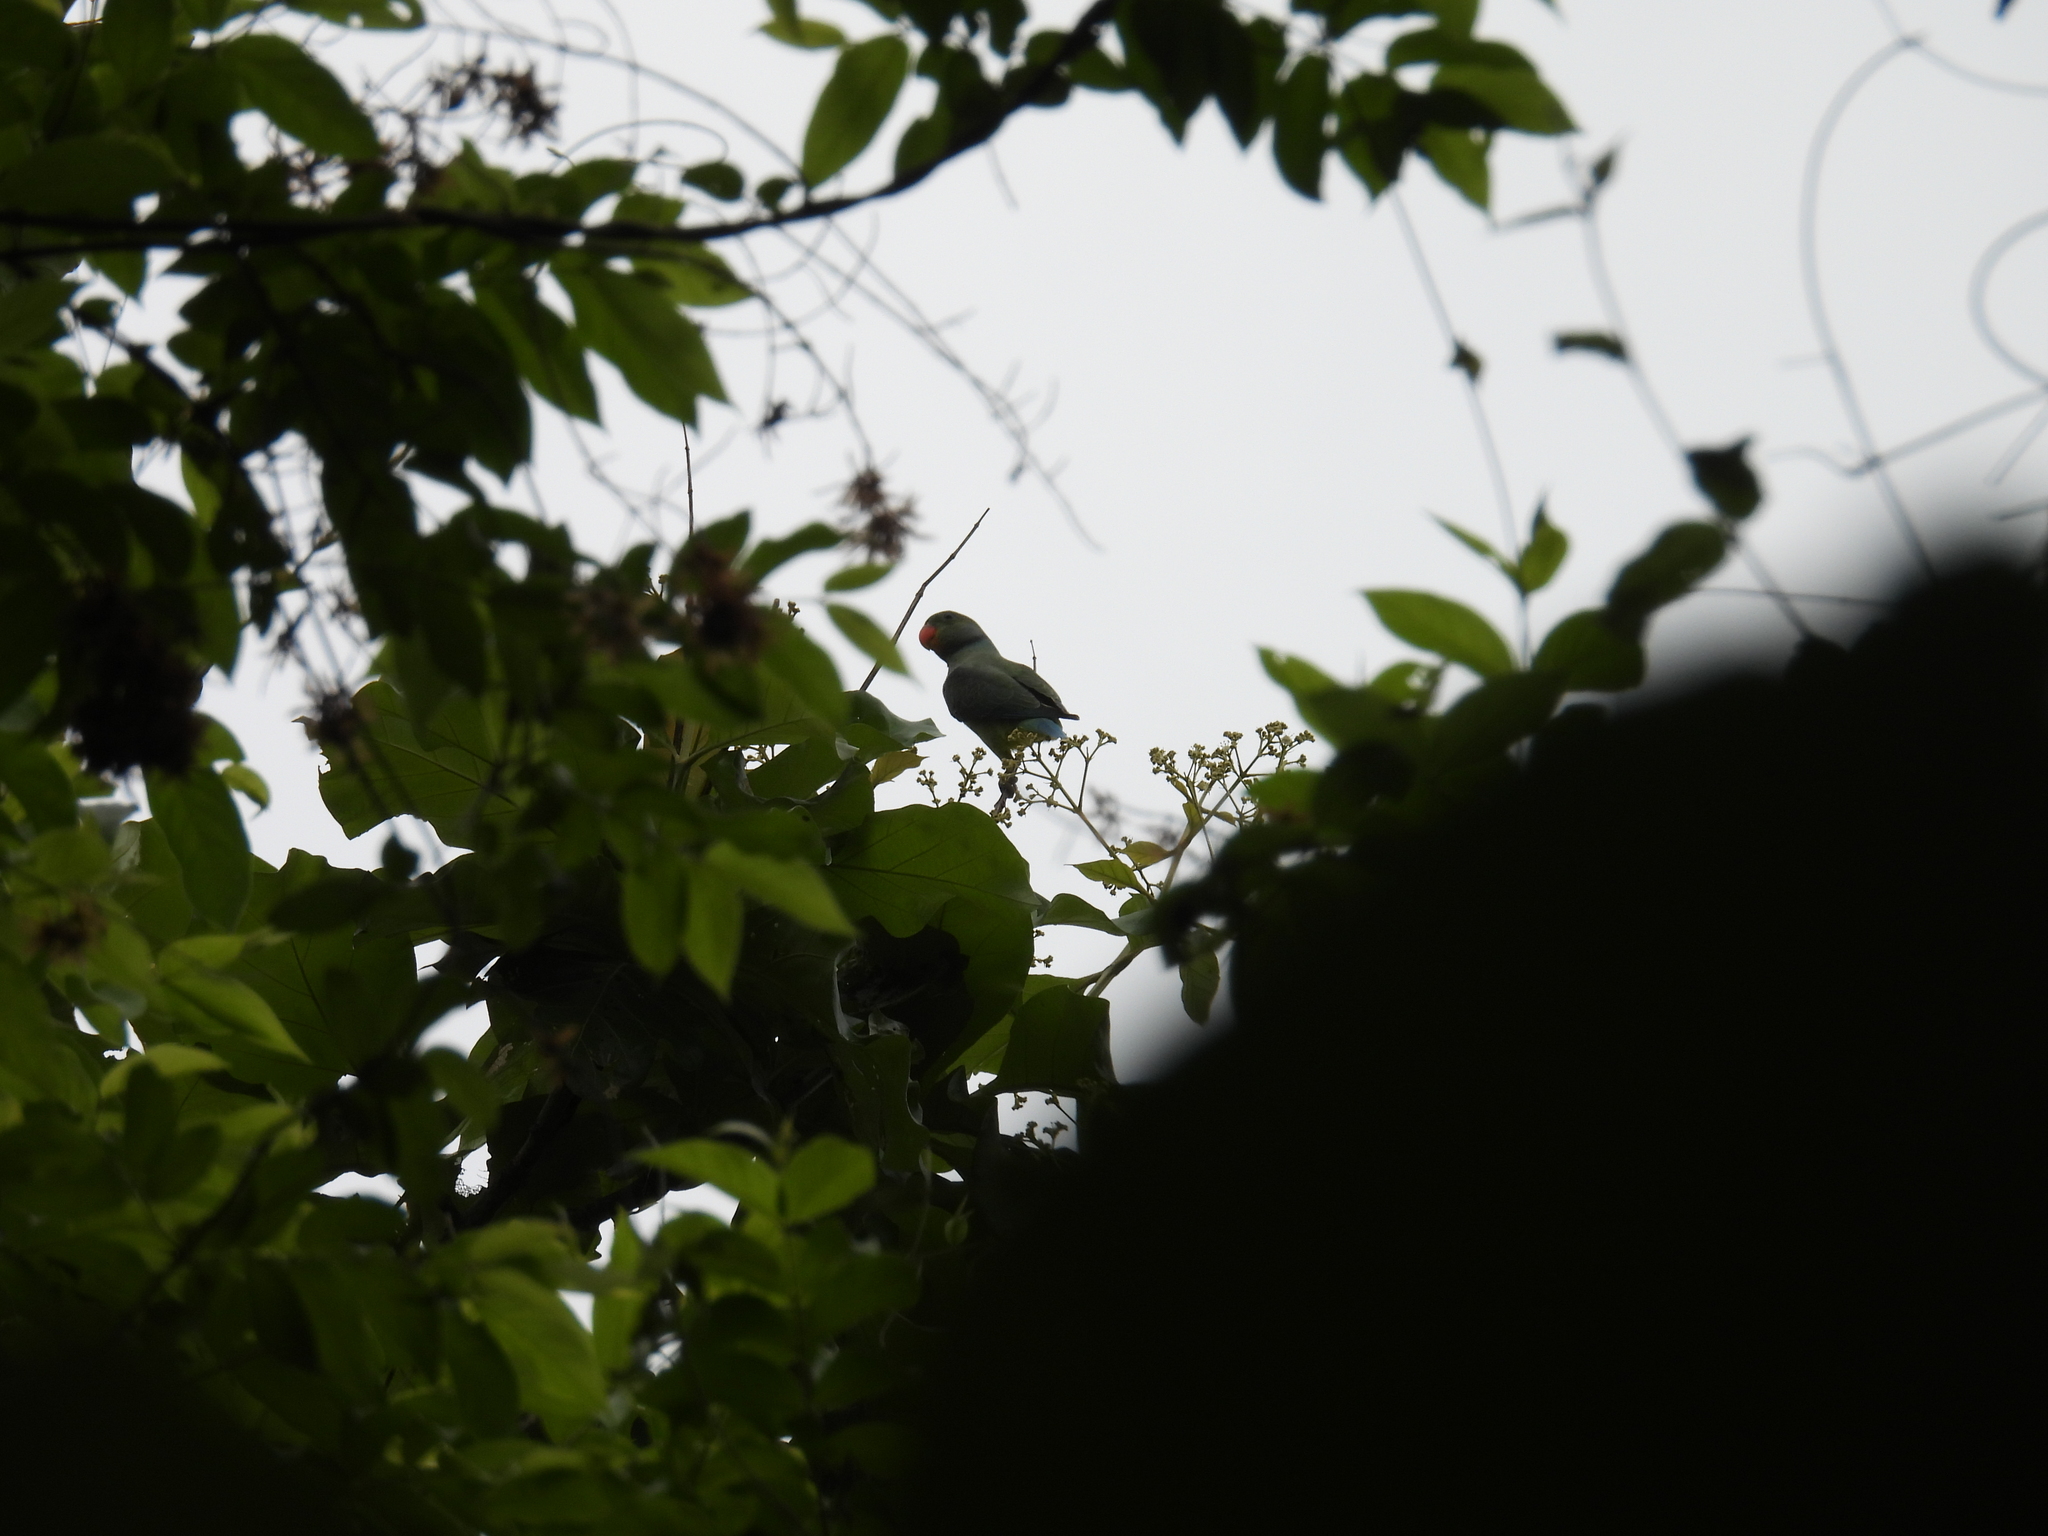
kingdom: Animalia
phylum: Chordata
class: Aves
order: Psittaciformes
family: Psittacidae
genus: Psittacula
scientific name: Psittacula columboides
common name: Blue-winged parakeet
